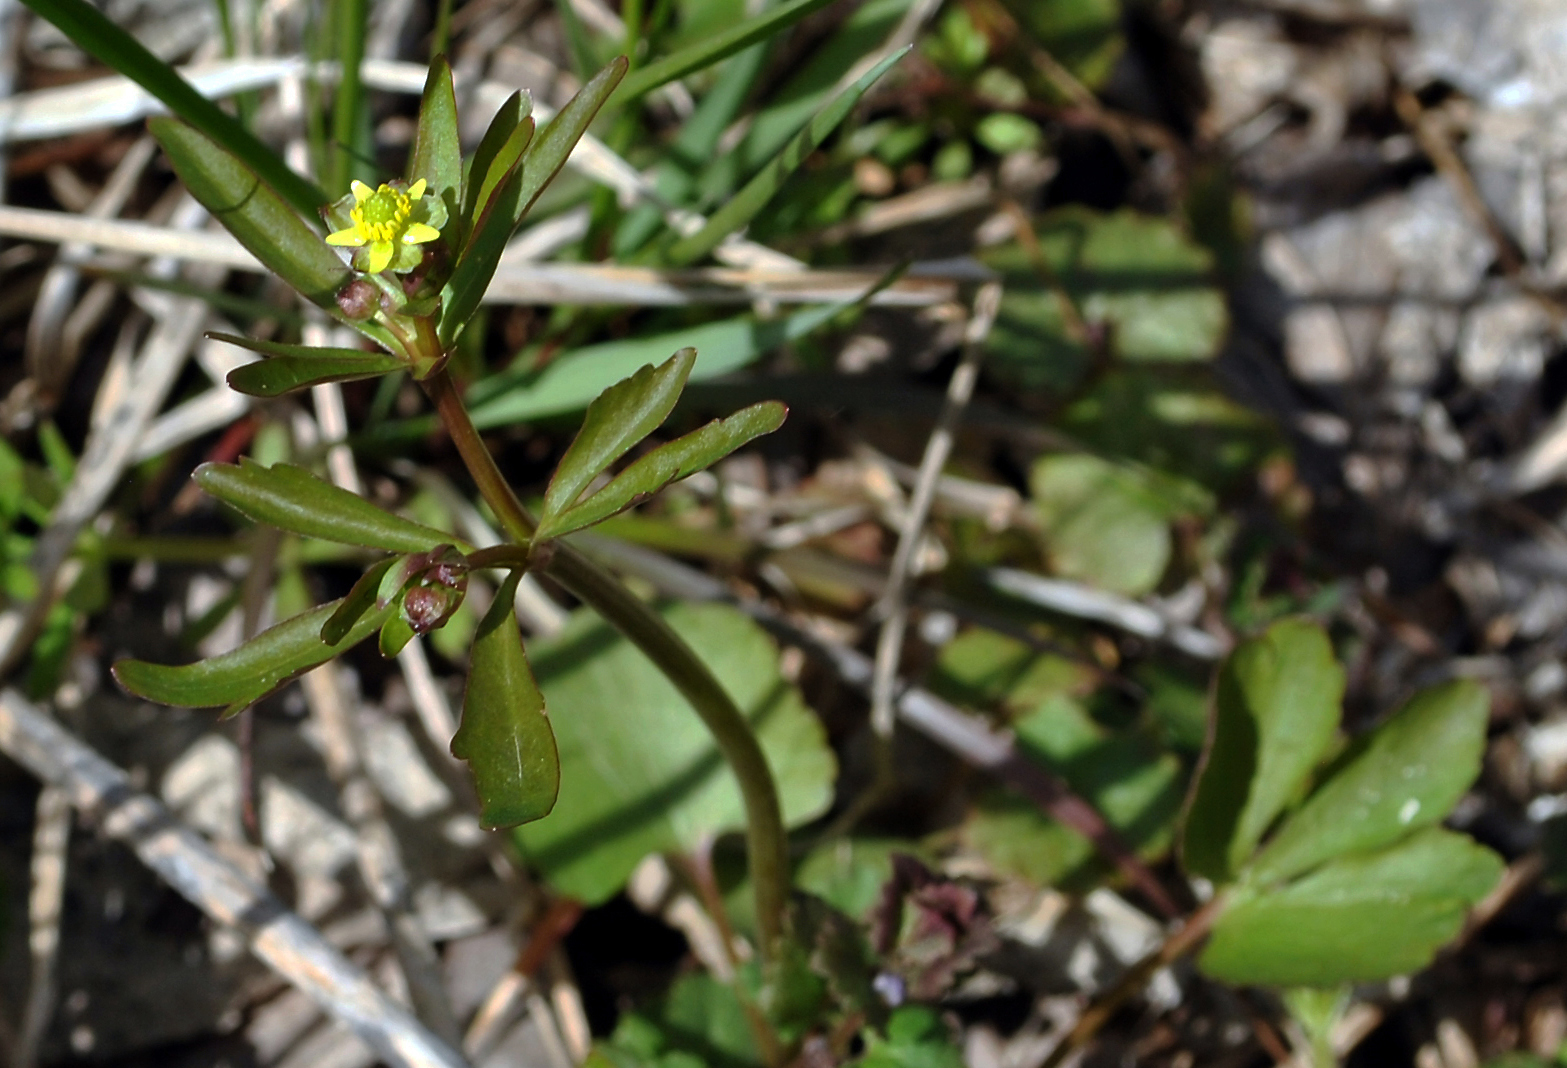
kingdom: Plantae
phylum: Tracheophyta
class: Magnoliopsida
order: Ranunculales
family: Ranunculaceae
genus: Ranunculus
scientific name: Ranunculus abortivus
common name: Early wood buttercup
